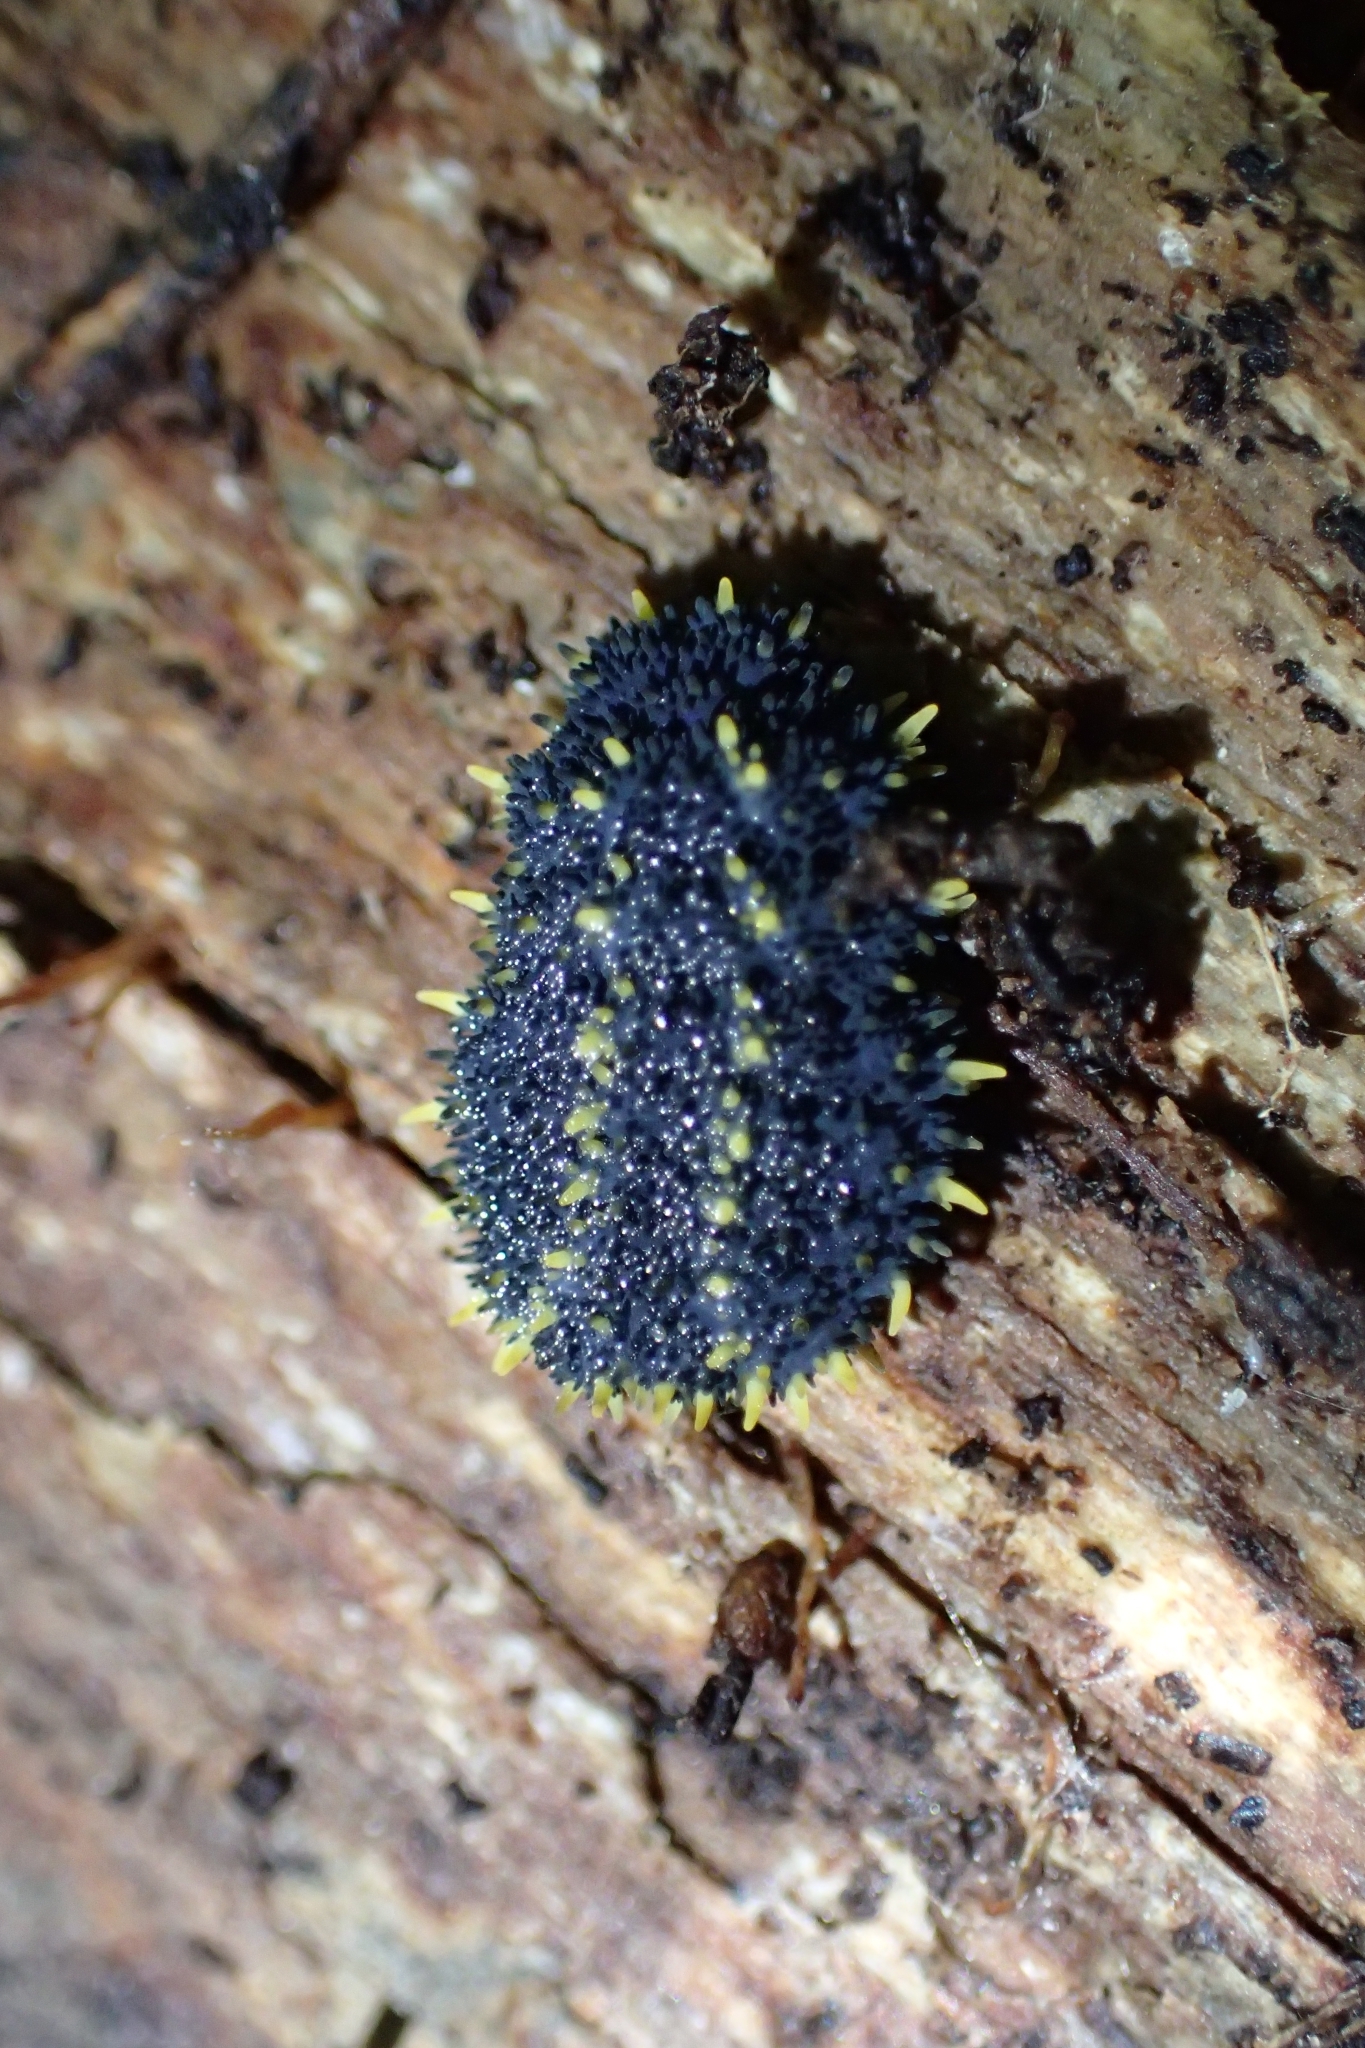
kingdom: Animalia
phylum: Arthropoda
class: Collembola
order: Poduromorpha
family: Neanuridae
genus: Holacanthella
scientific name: Holacanthella duospinosa
